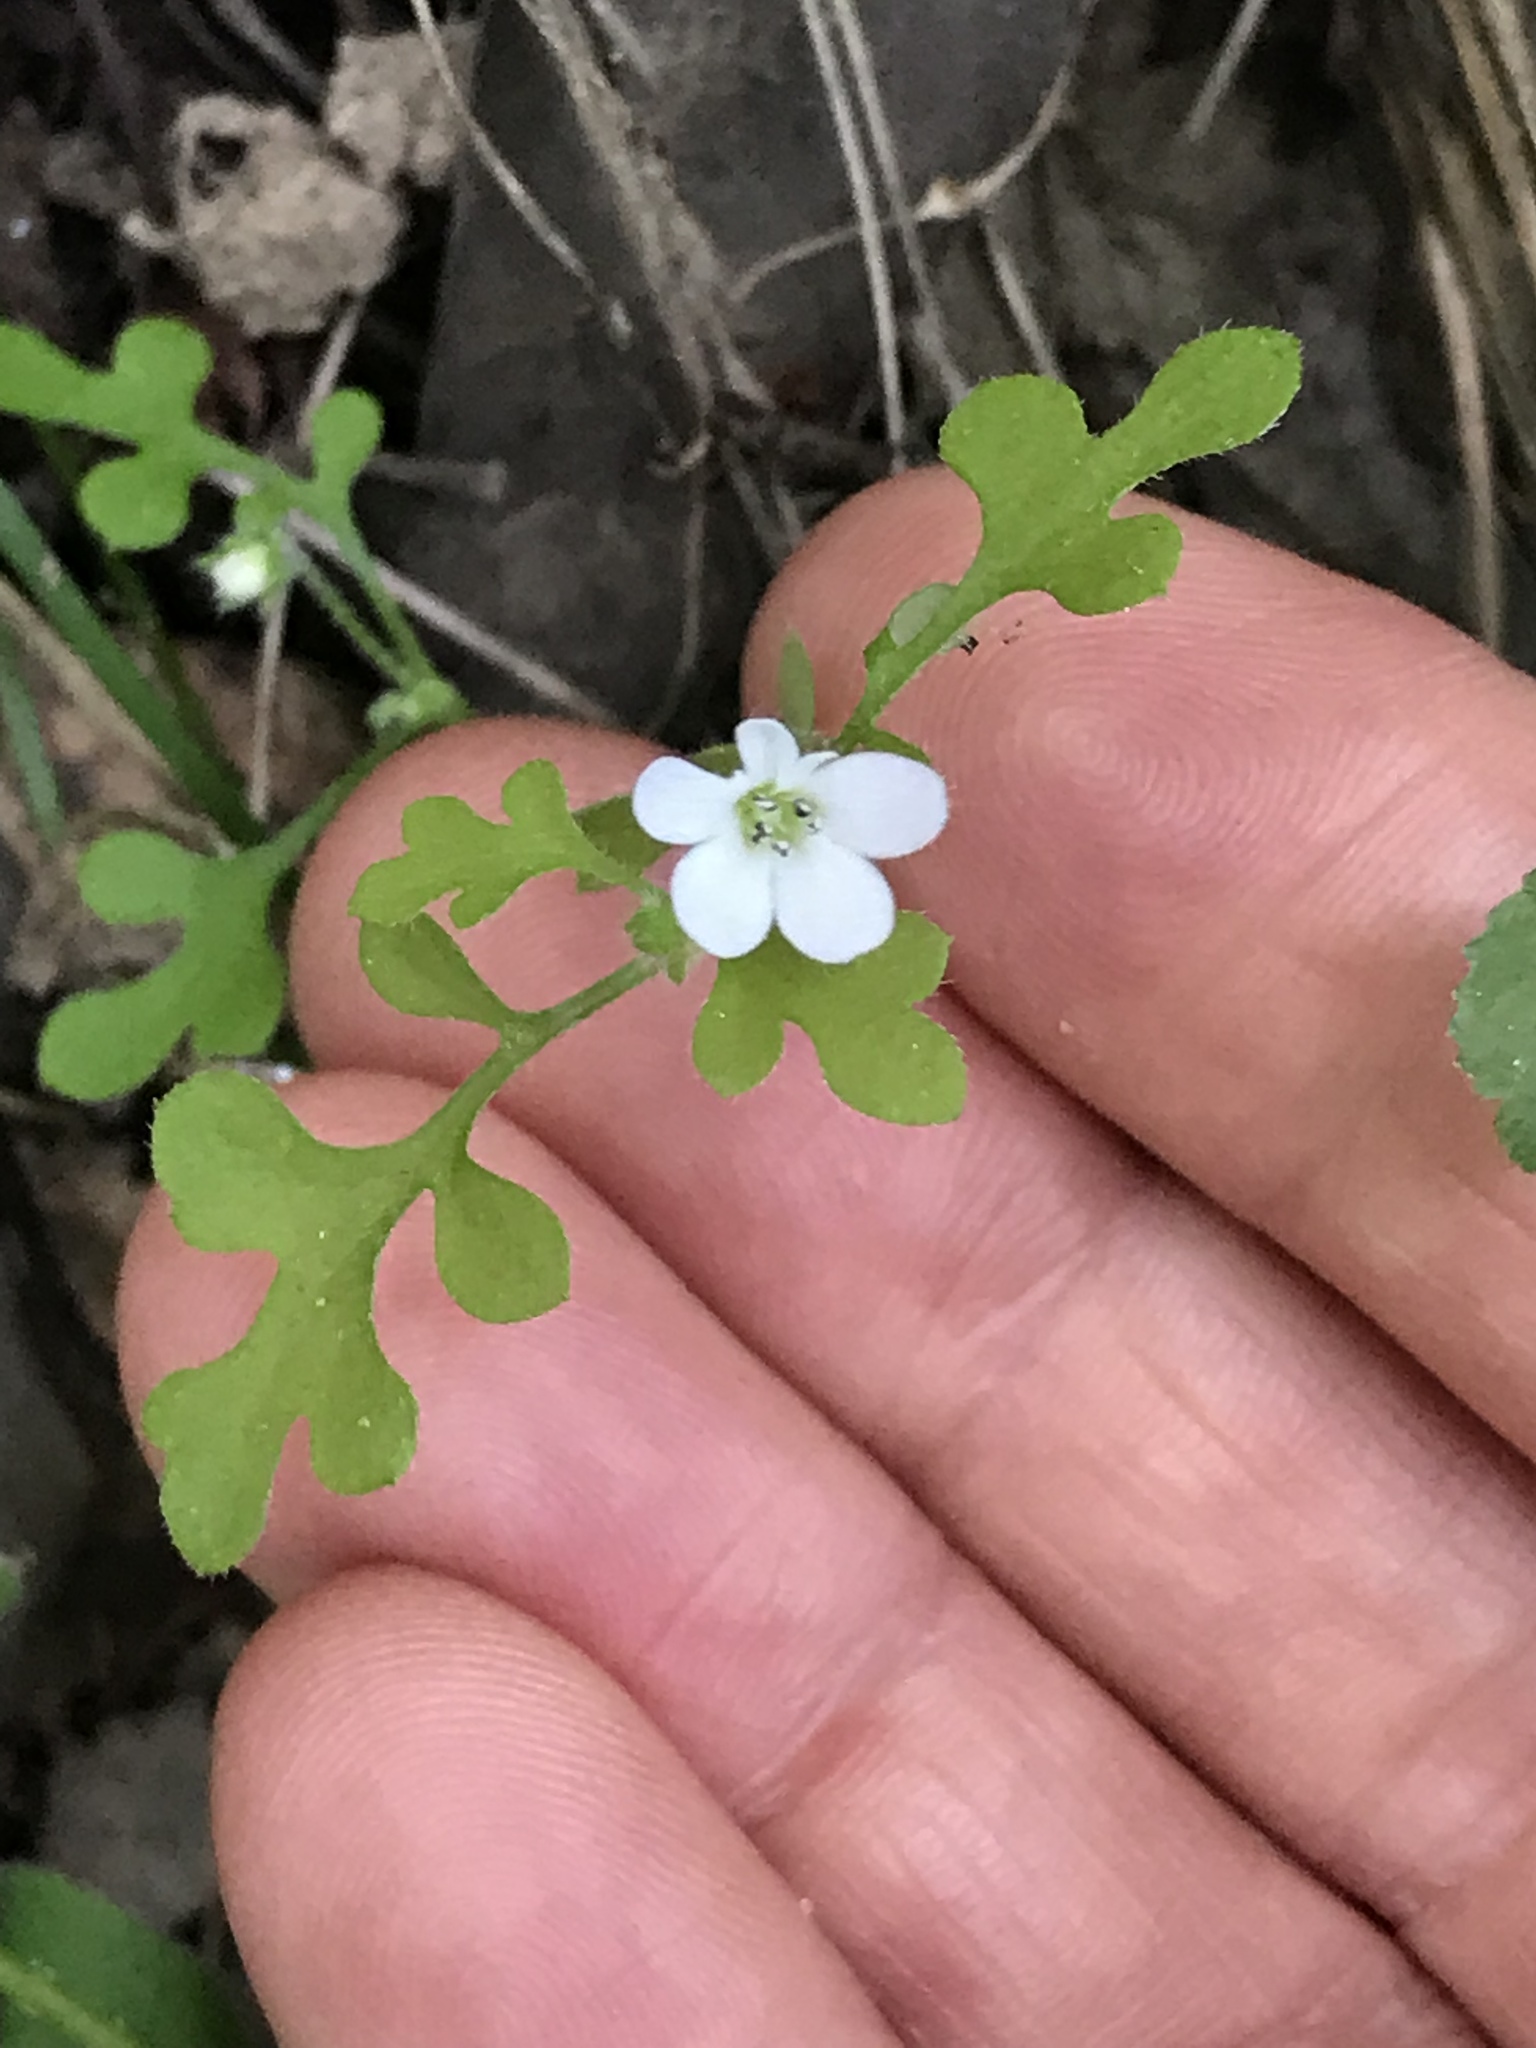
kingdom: Plantae
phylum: Tracheophyta
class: Magnoliopsida
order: Boraginales
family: Hydrophyllaceae
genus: Nemophila
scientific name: Nemophila heterophylla
